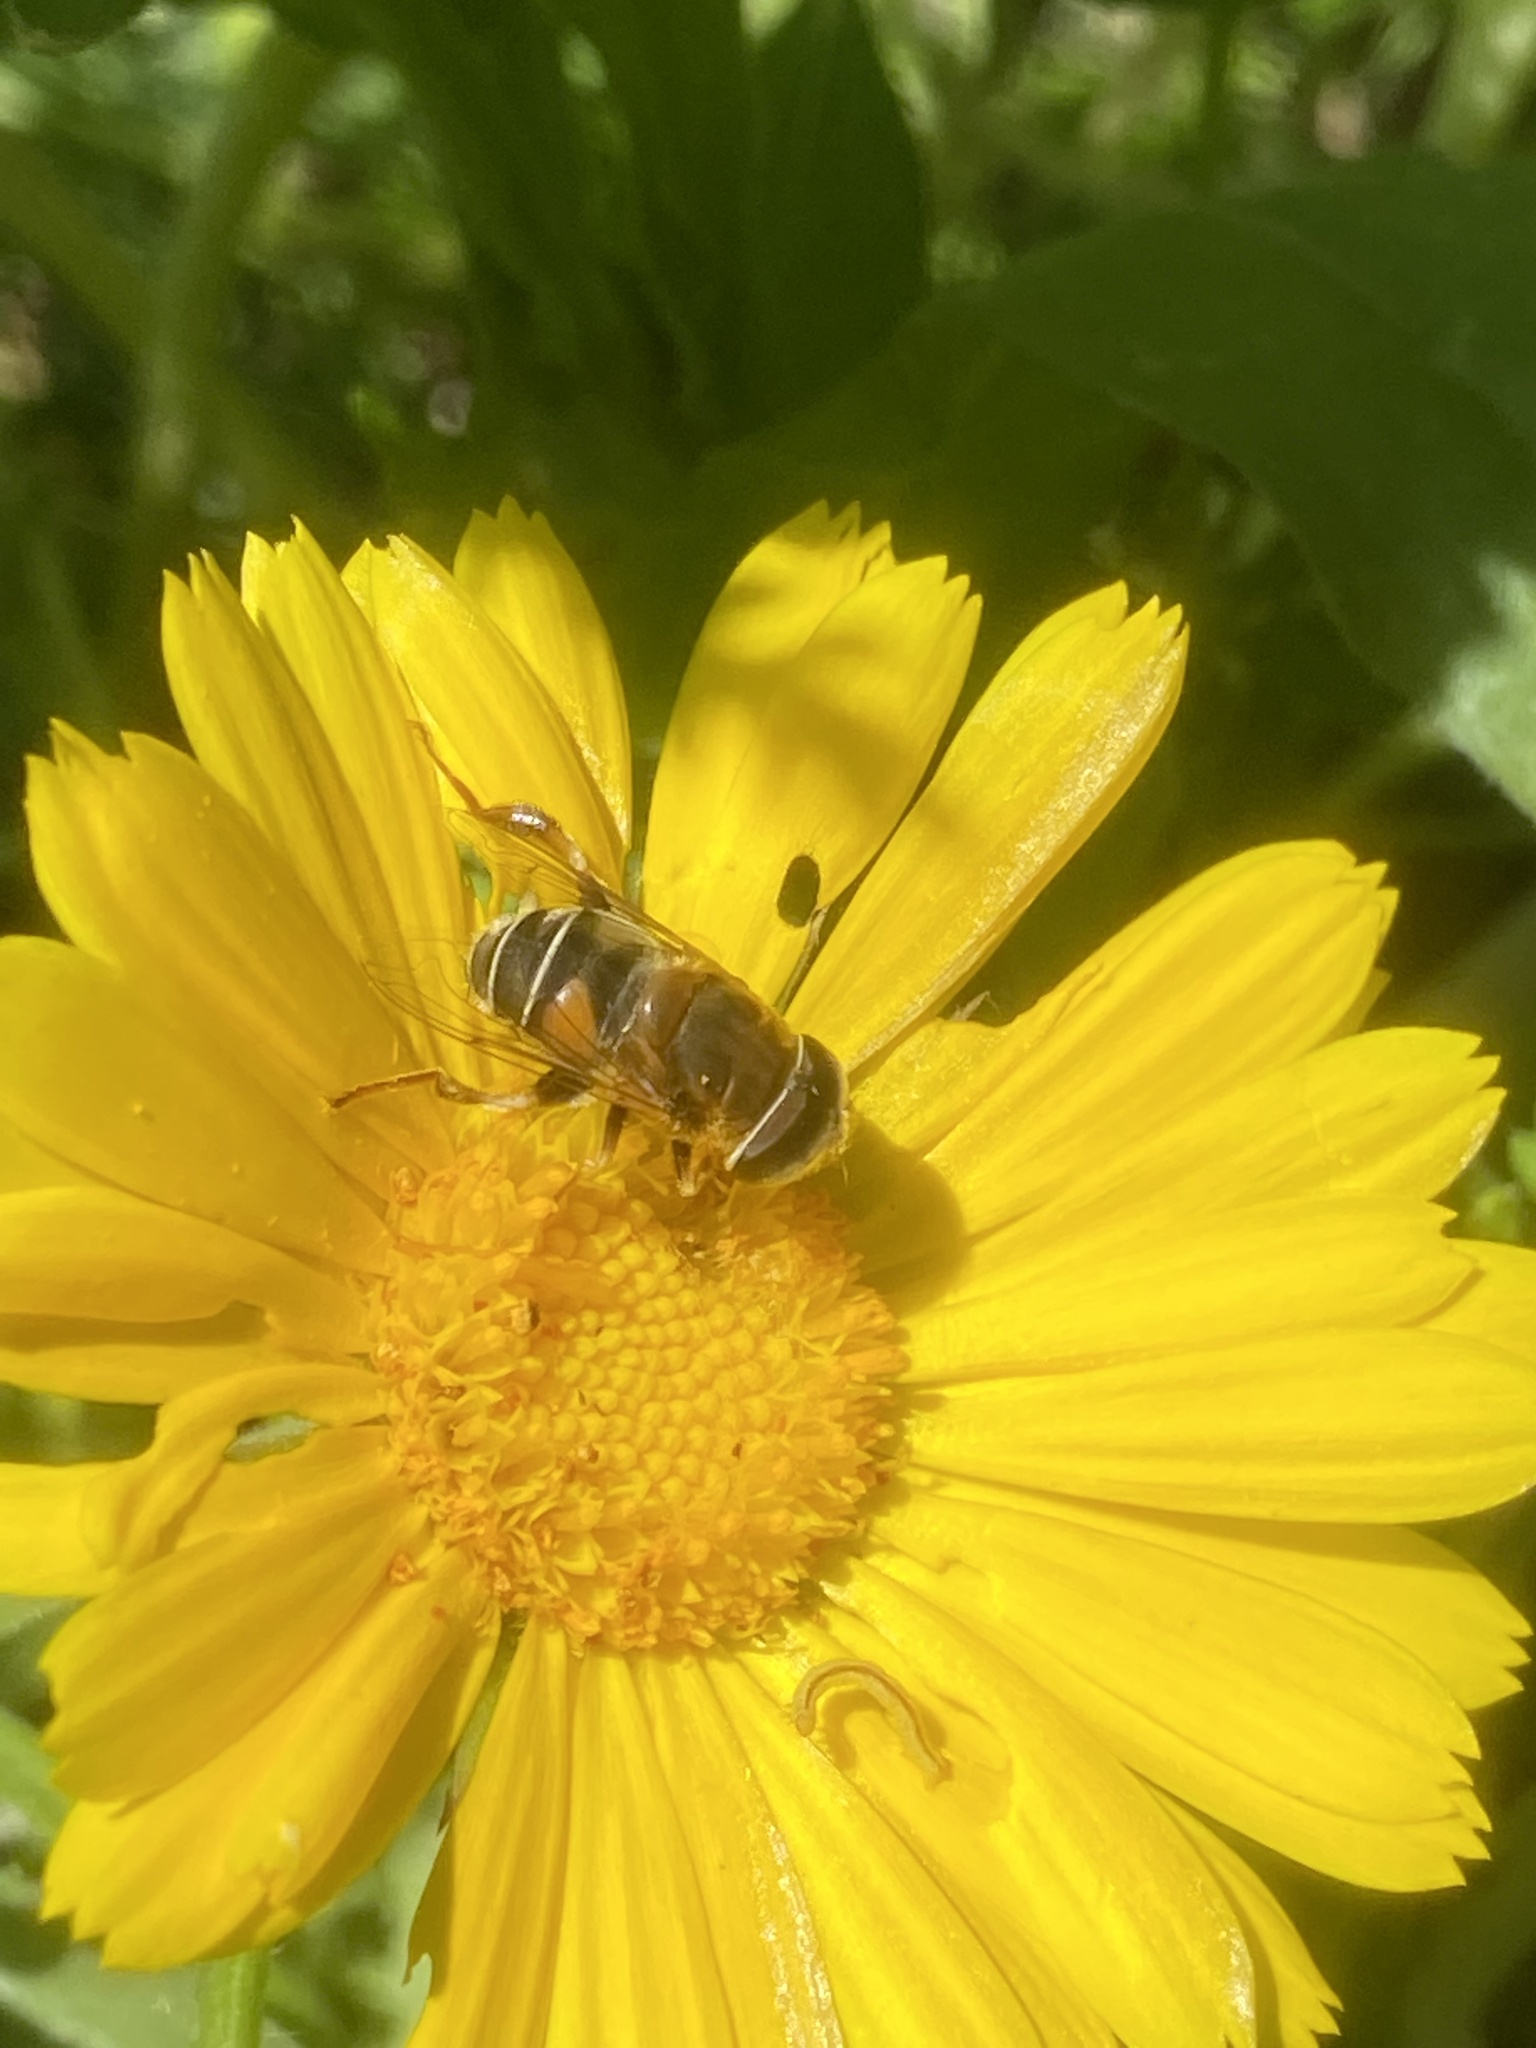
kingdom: Animalia
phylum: Arthropoda
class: Insecta
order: Diptera
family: Syrphidae
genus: Palpada
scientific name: Palpada mexicana
